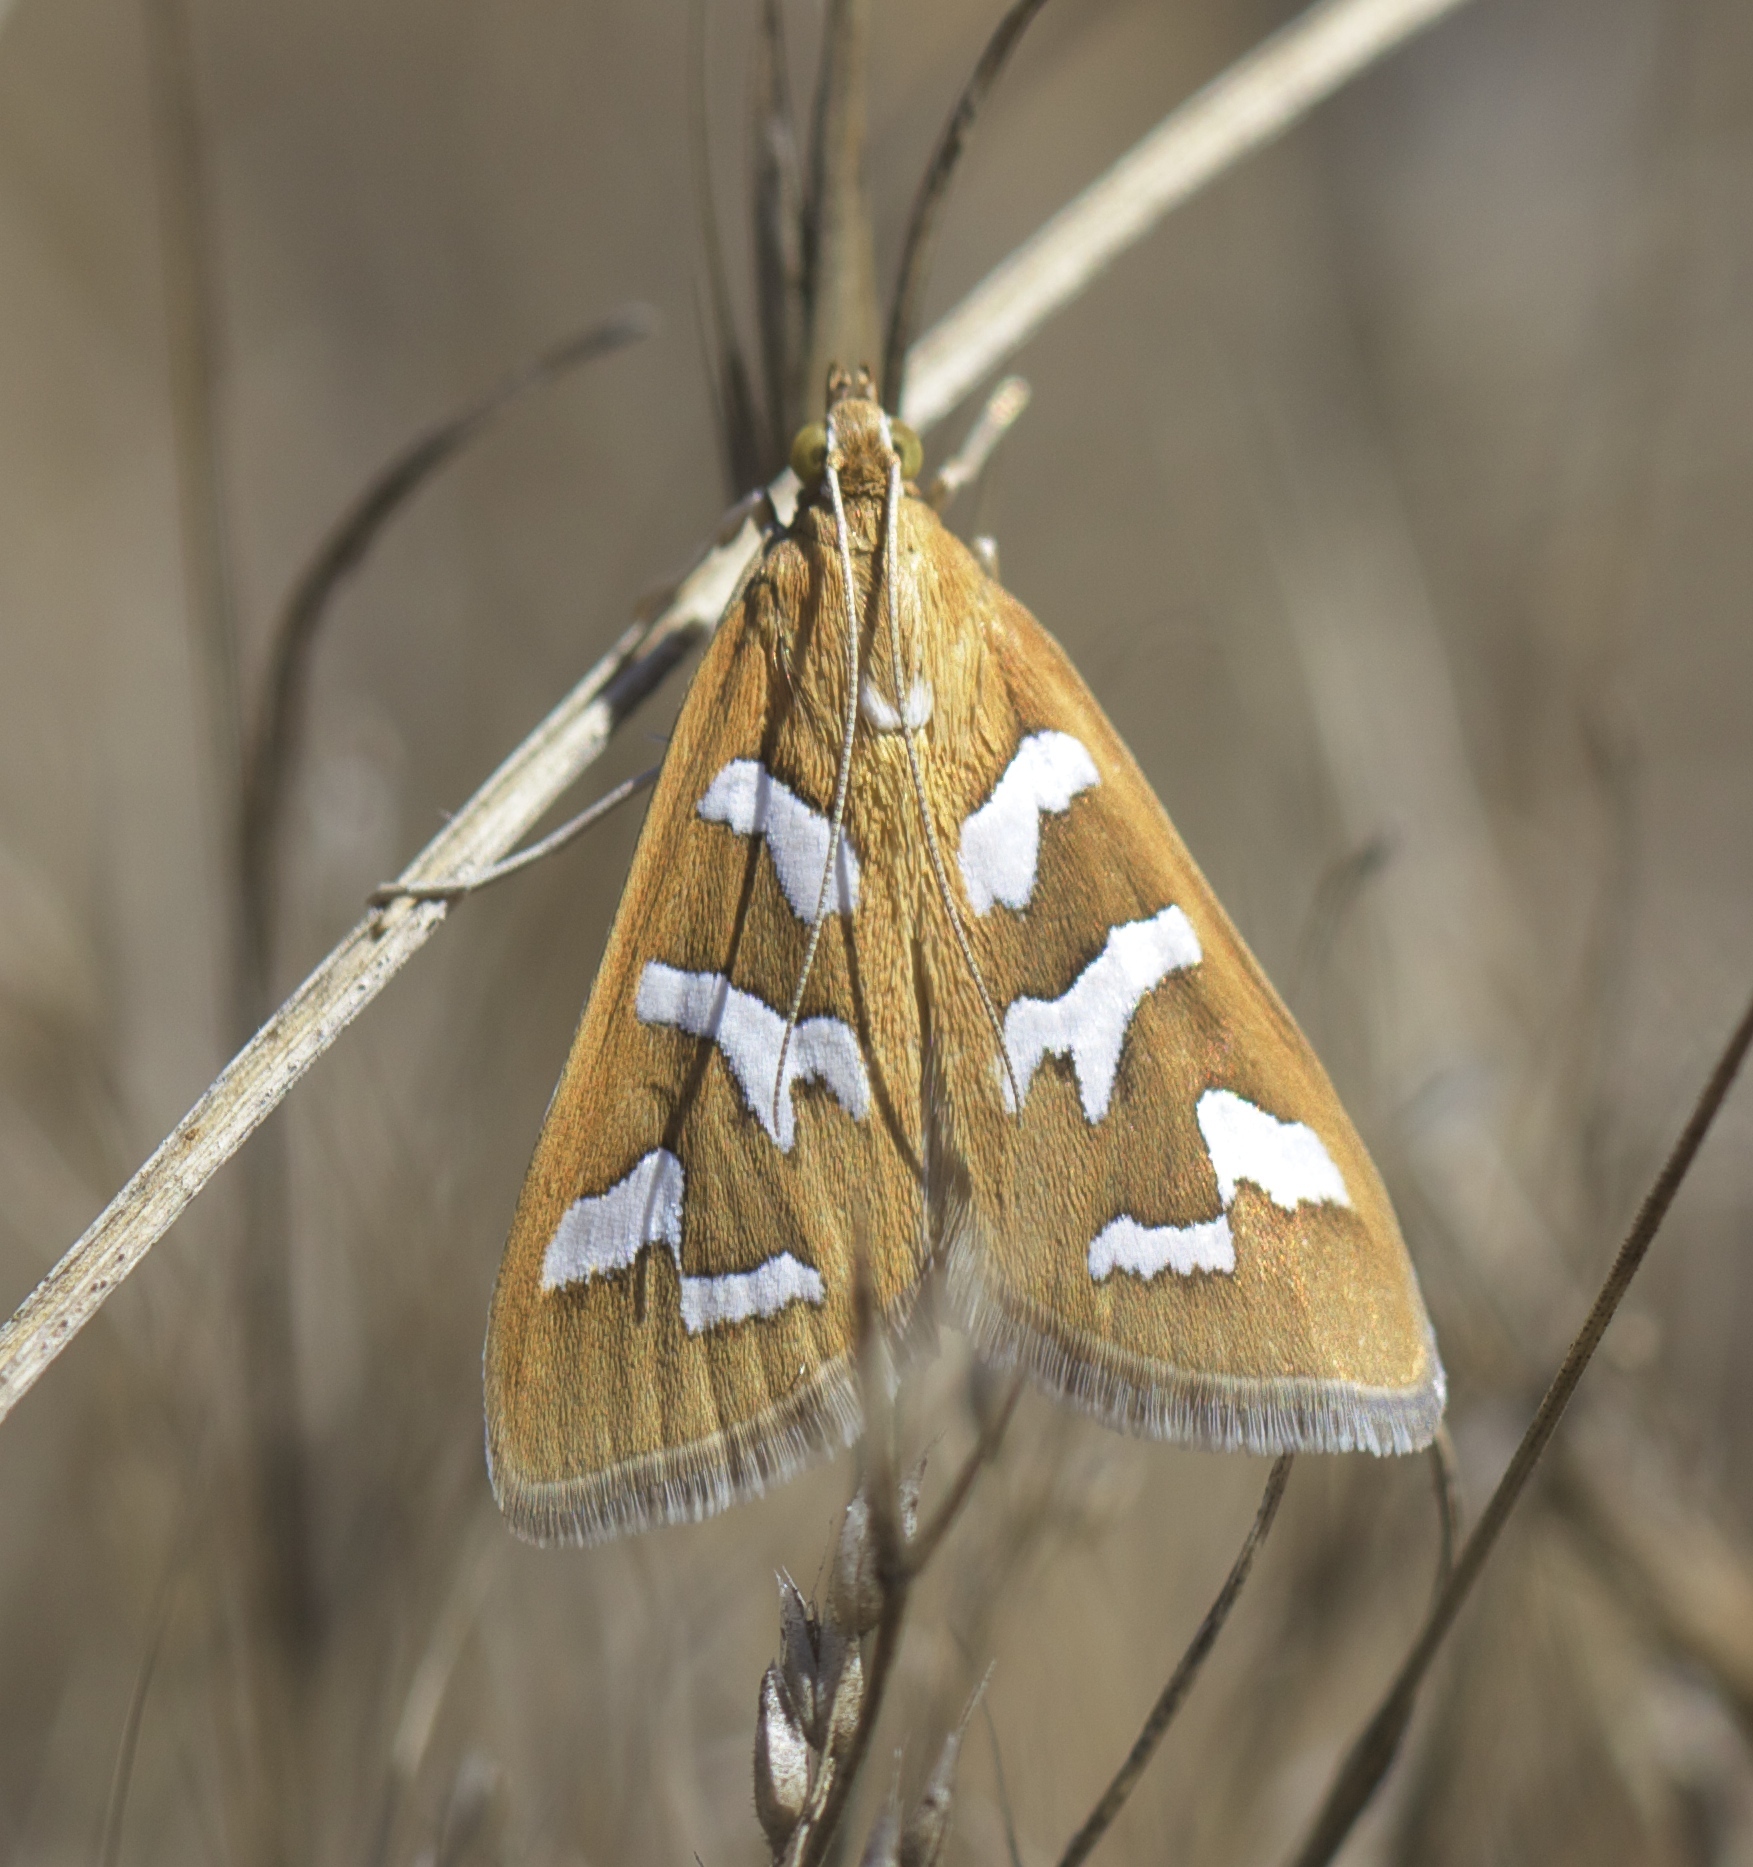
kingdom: Animalia
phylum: Arthropoda
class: Insecta
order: Lepidoptera
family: Crambidae
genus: Diastictis
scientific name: Diastictis fracturalis
